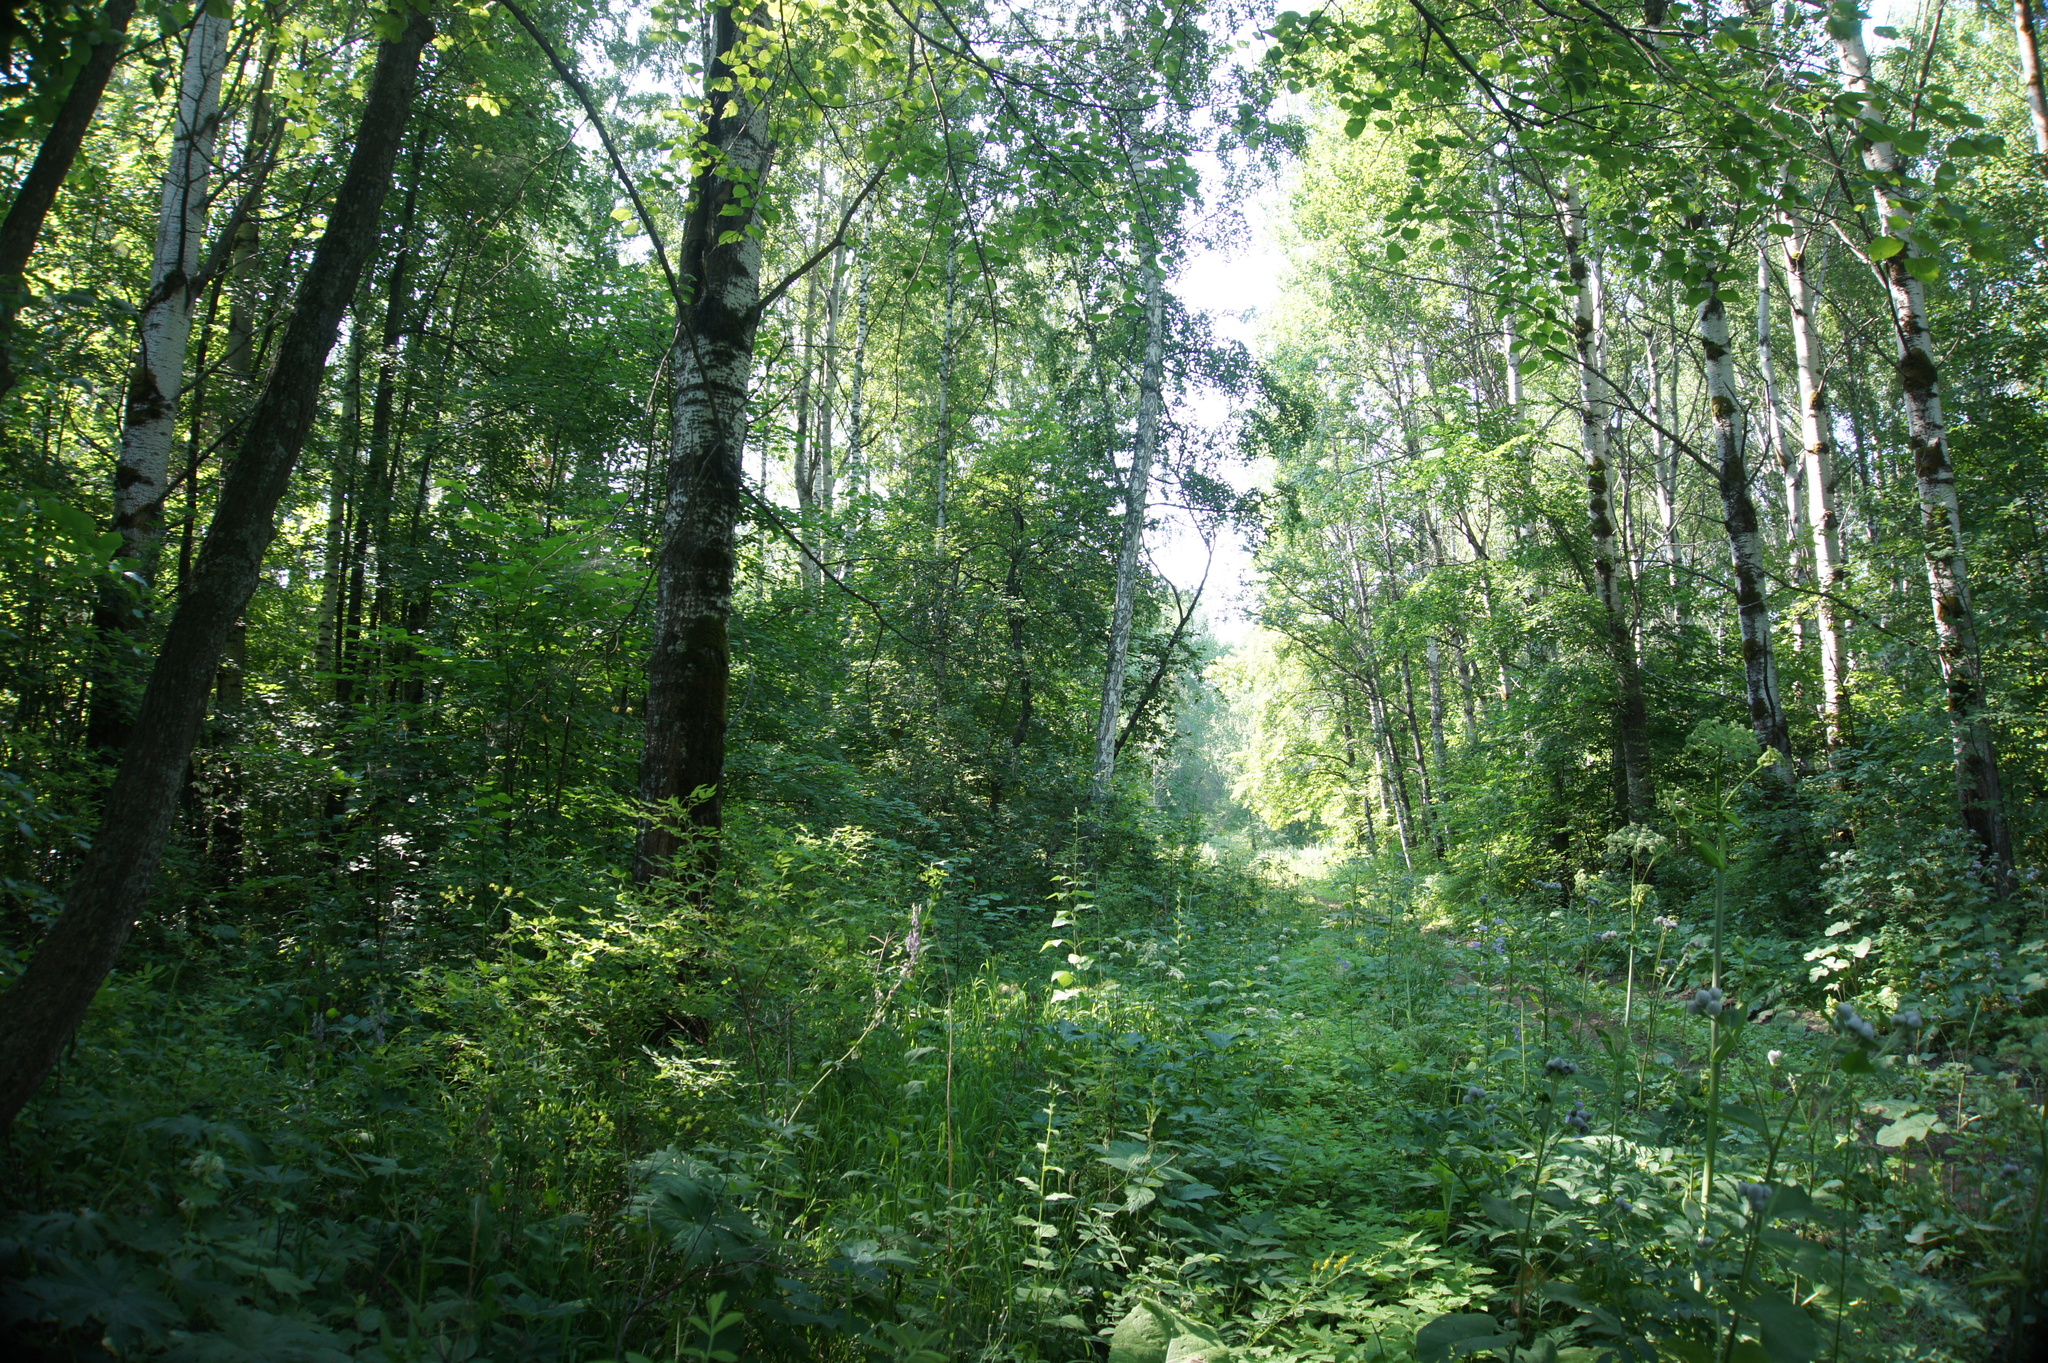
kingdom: Plantae
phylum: Tracheophyta
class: Magnoliopsida
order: Malpighiales
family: Salicaceae
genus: Populus
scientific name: Populus tremula
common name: European aspen
